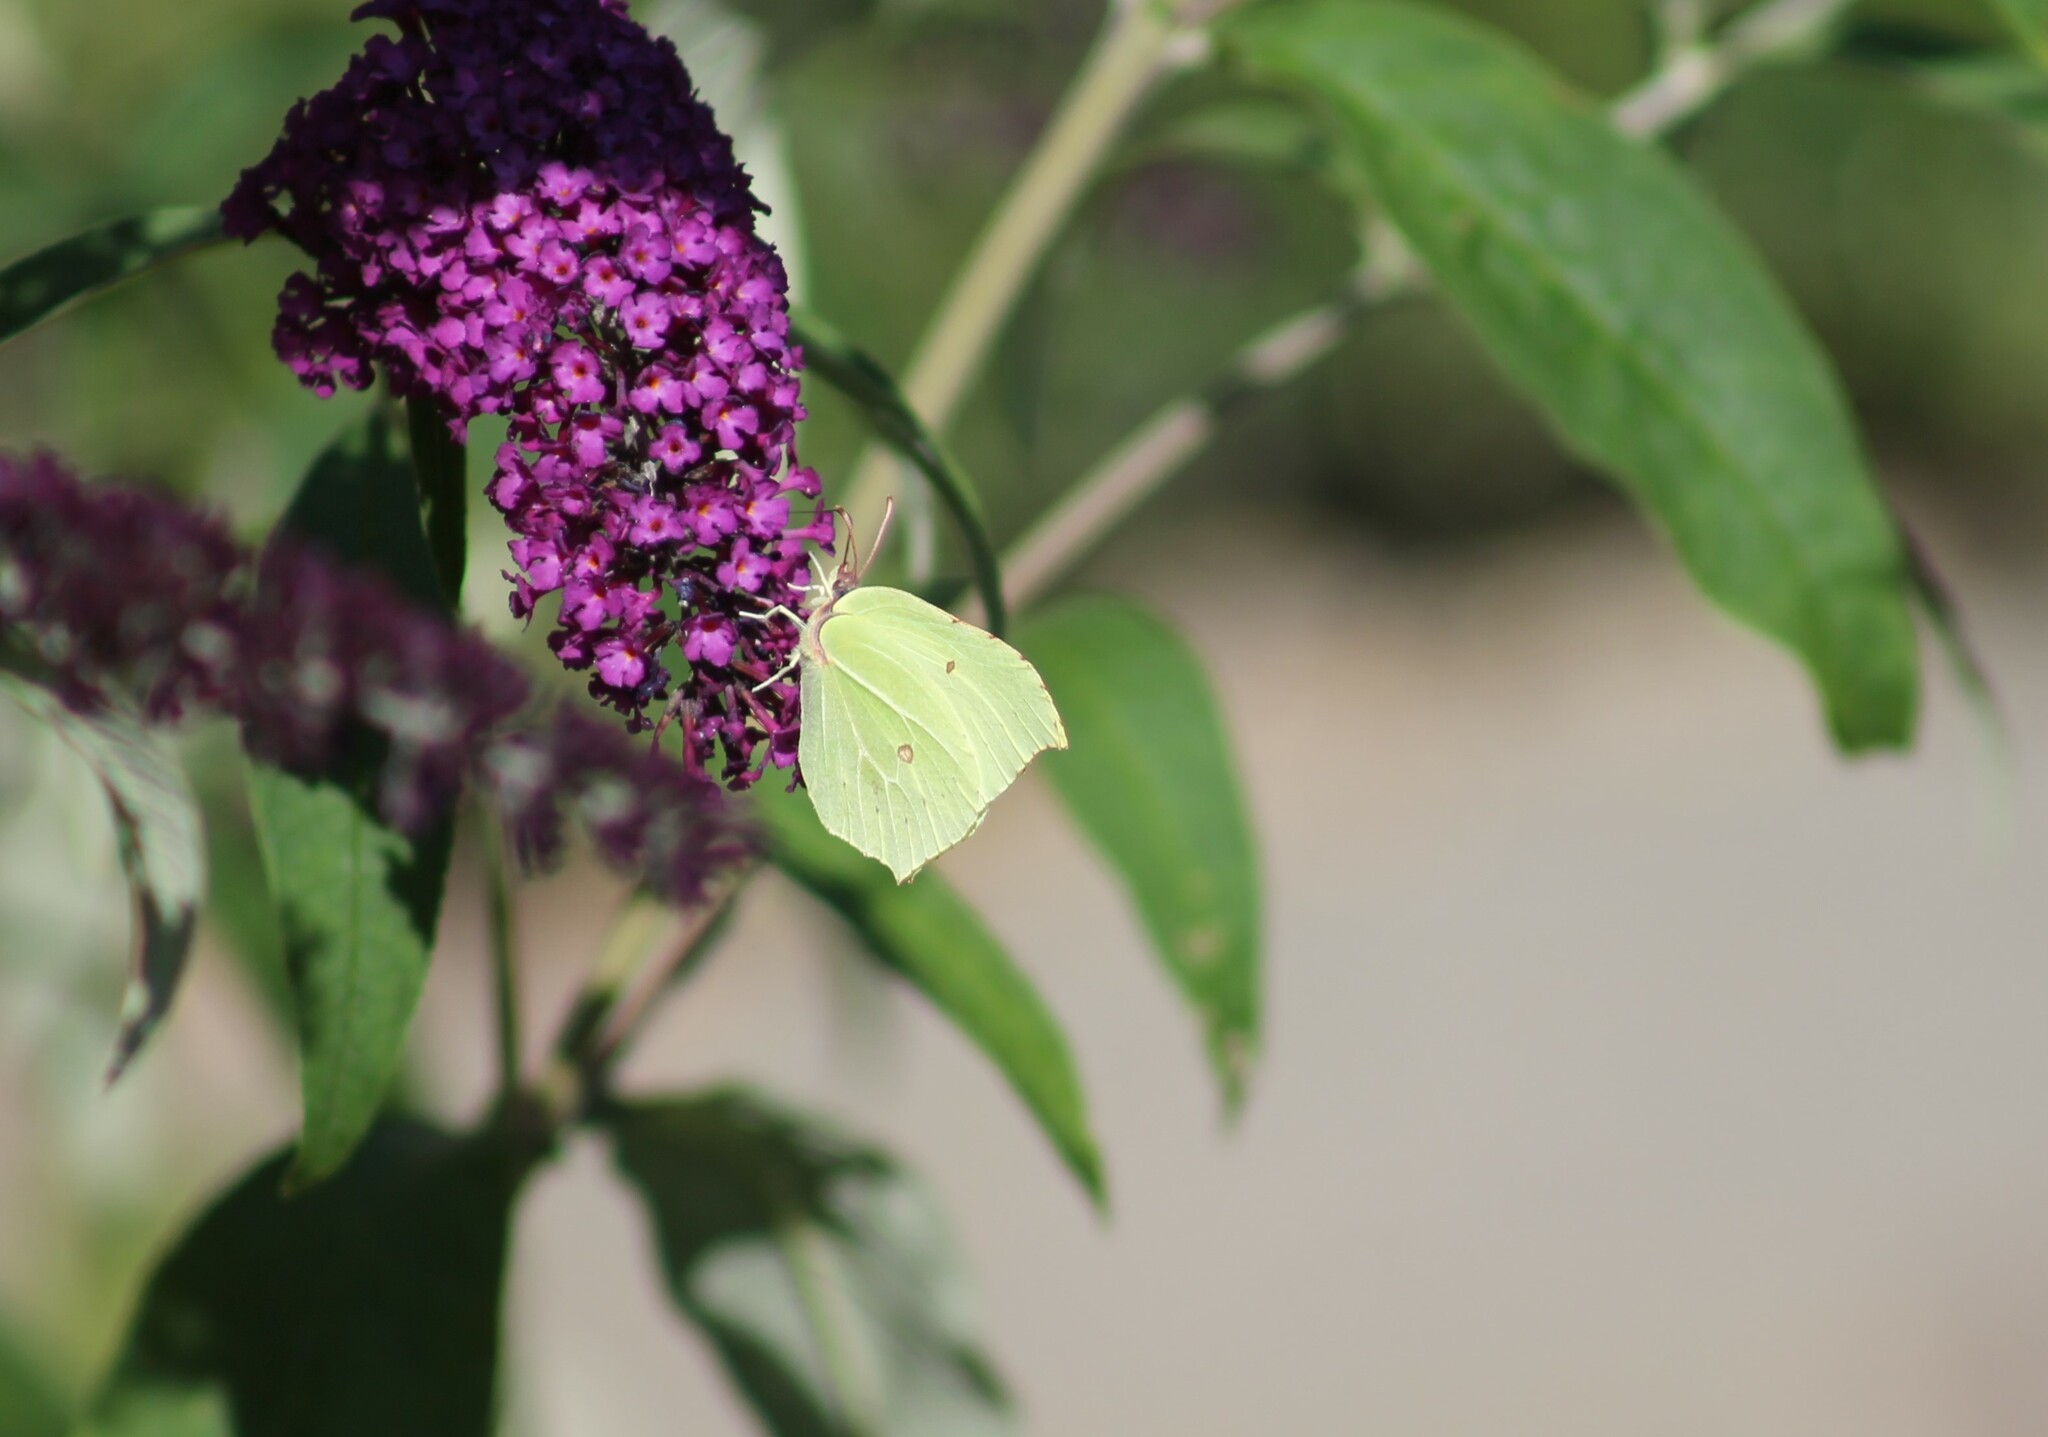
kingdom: Animalia
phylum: Arthropoda
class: Insecta
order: Lepidoptera
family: Pieridae
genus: Gonepteryx
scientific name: Gonepteryx rhamni
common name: Brimstone
